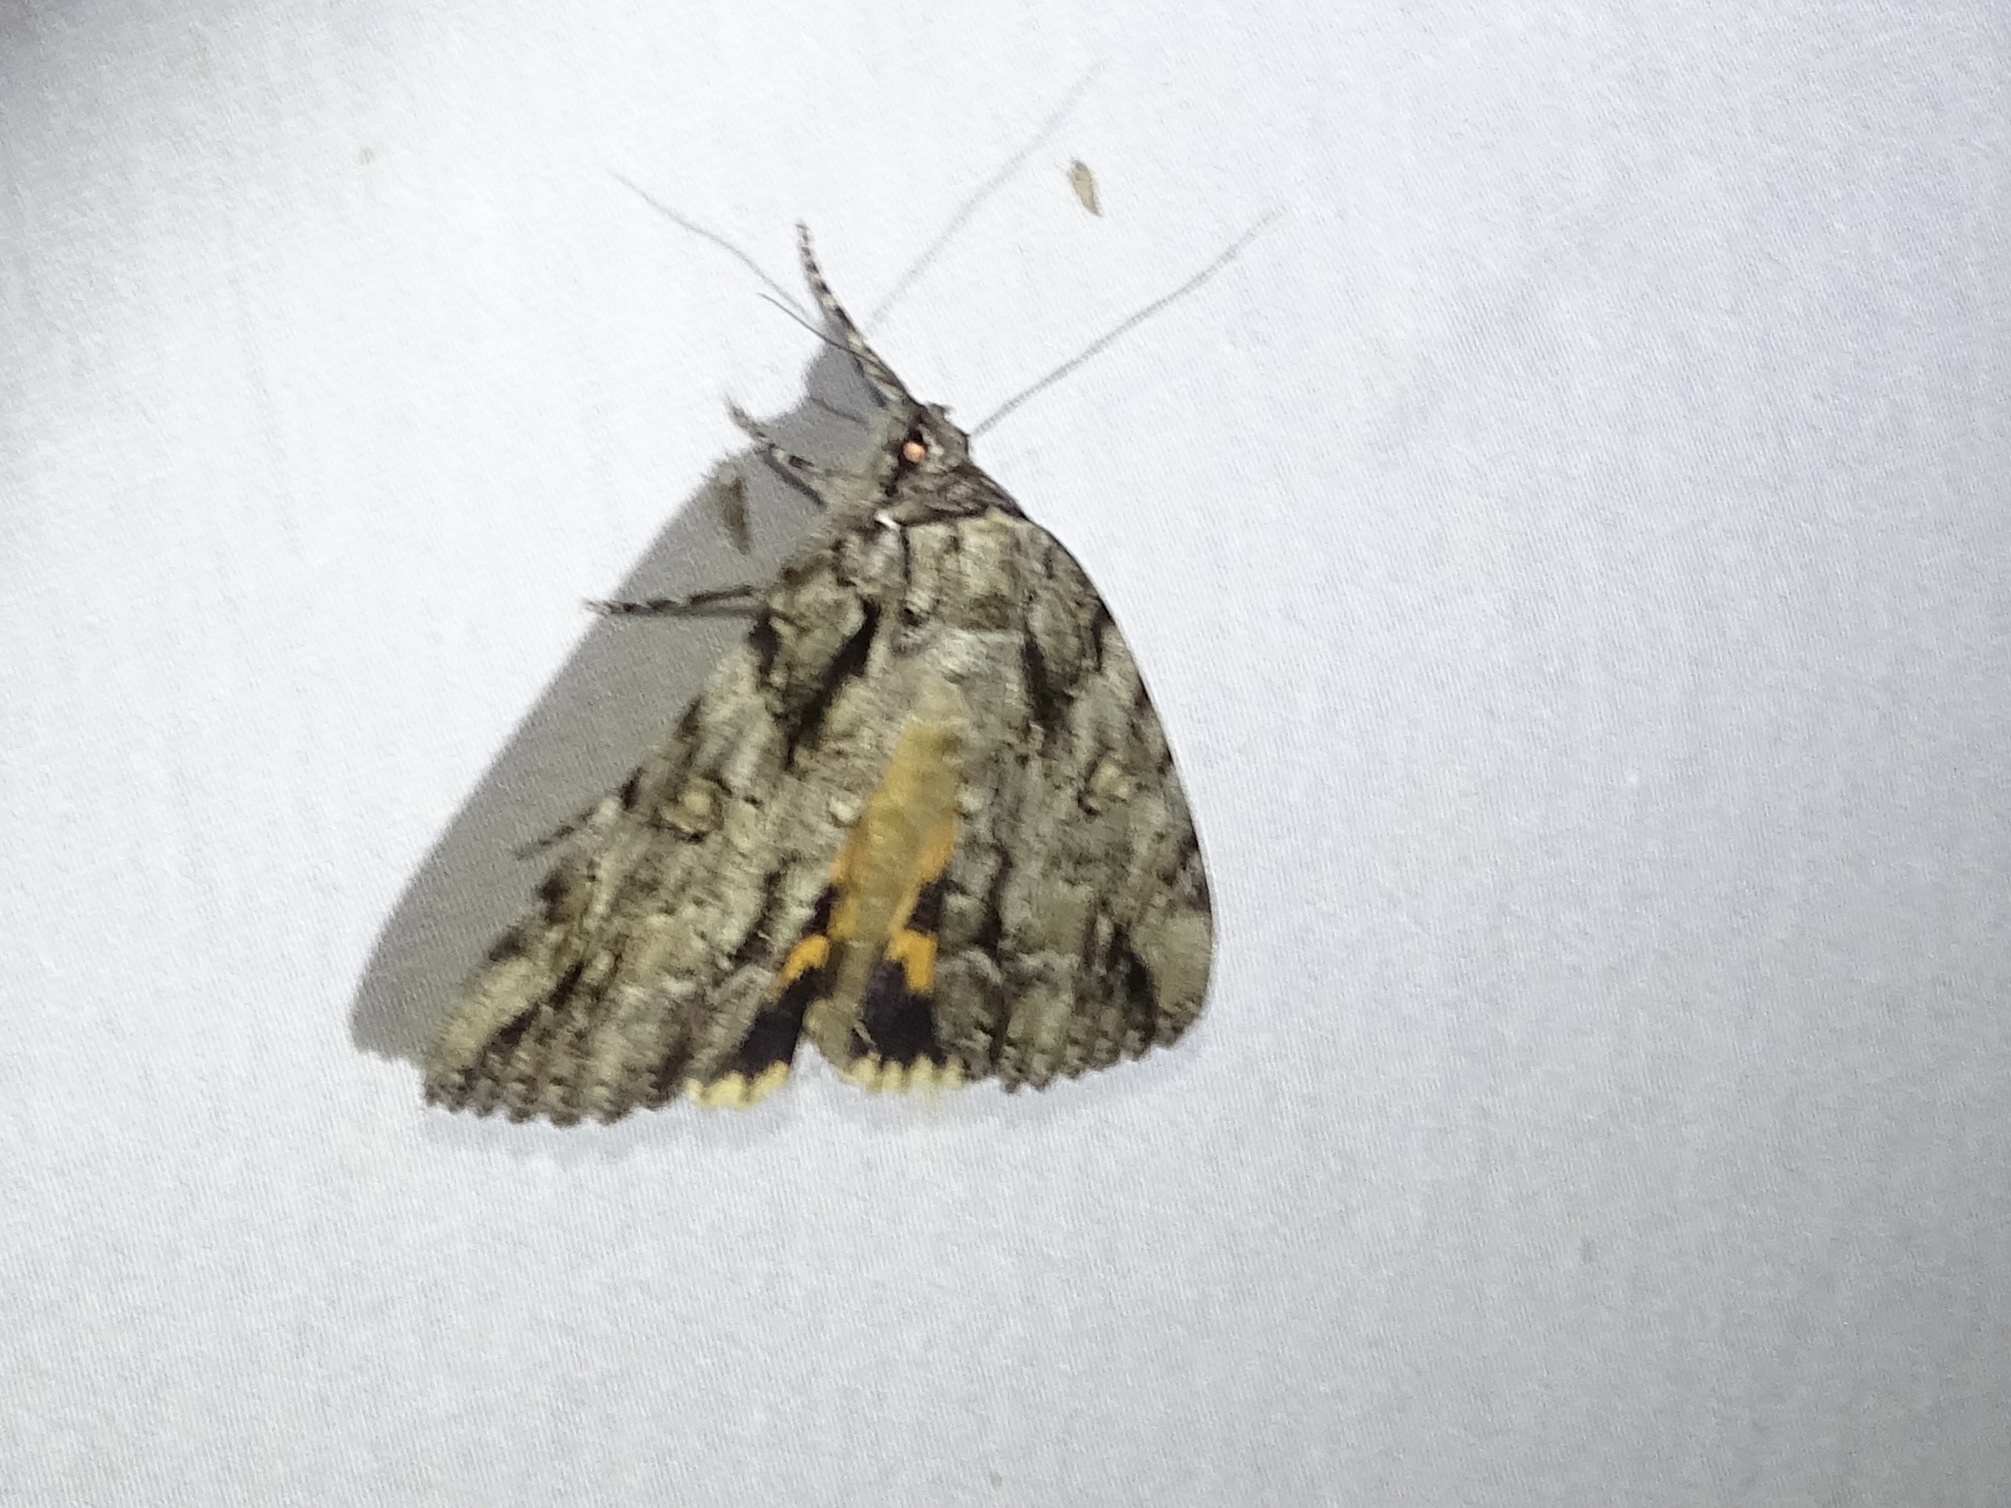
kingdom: Animalia
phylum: Arthropoda
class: Insecta
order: Lepidoptera
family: Erebidae
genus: Catocala
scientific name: Catocala neogama
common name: Bride underwing
